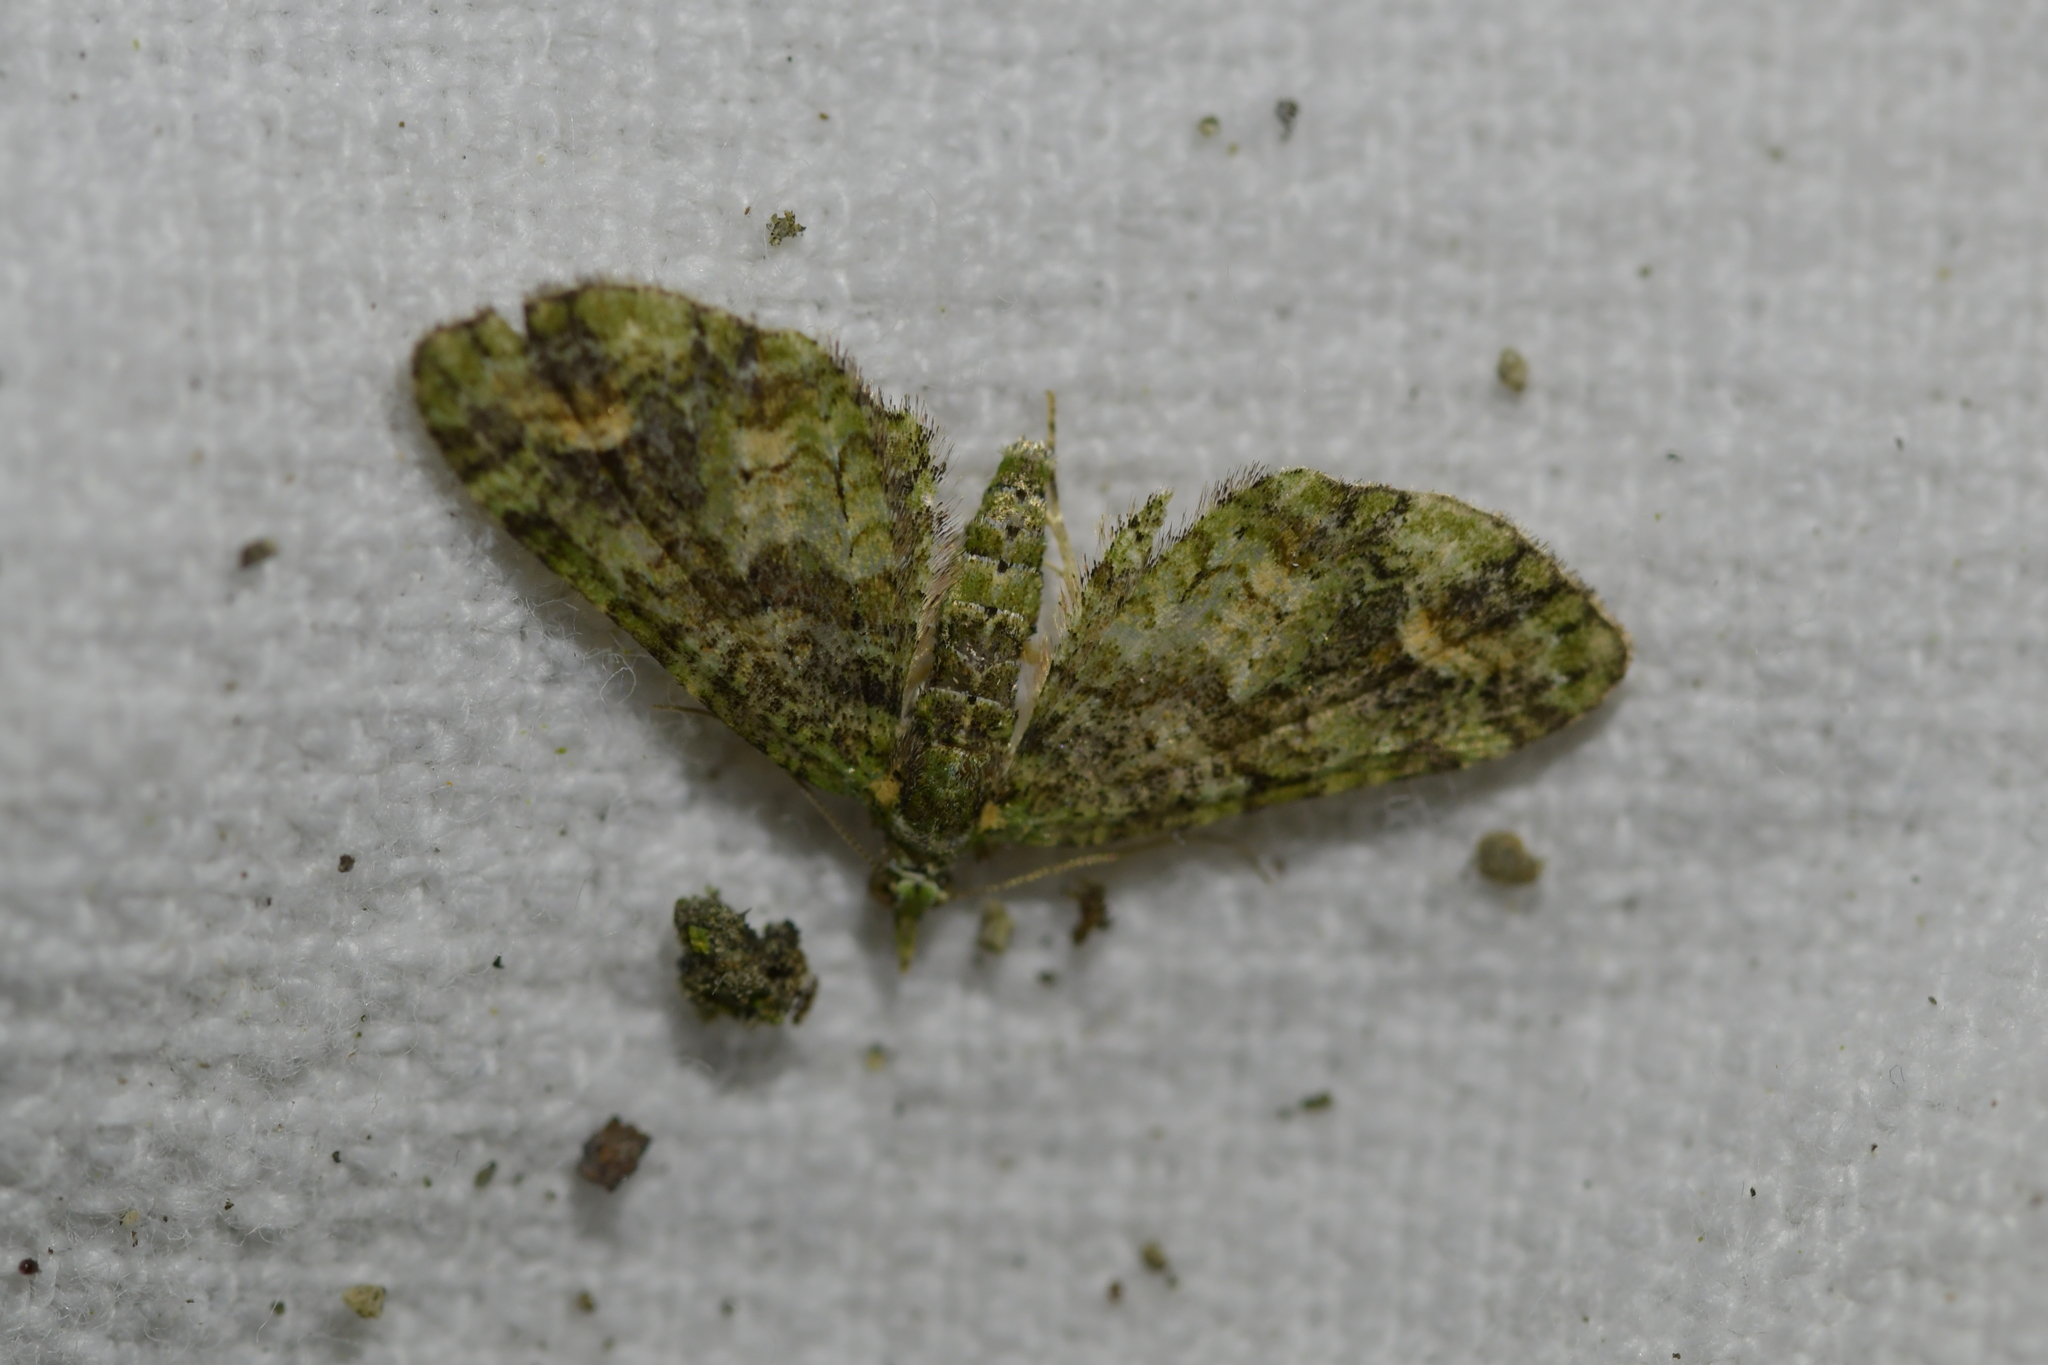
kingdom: Animalia
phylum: Arthropoda
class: Insecta
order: Lepidoptera
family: Geometridae
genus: Idaea
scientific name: Idaea mutanda
